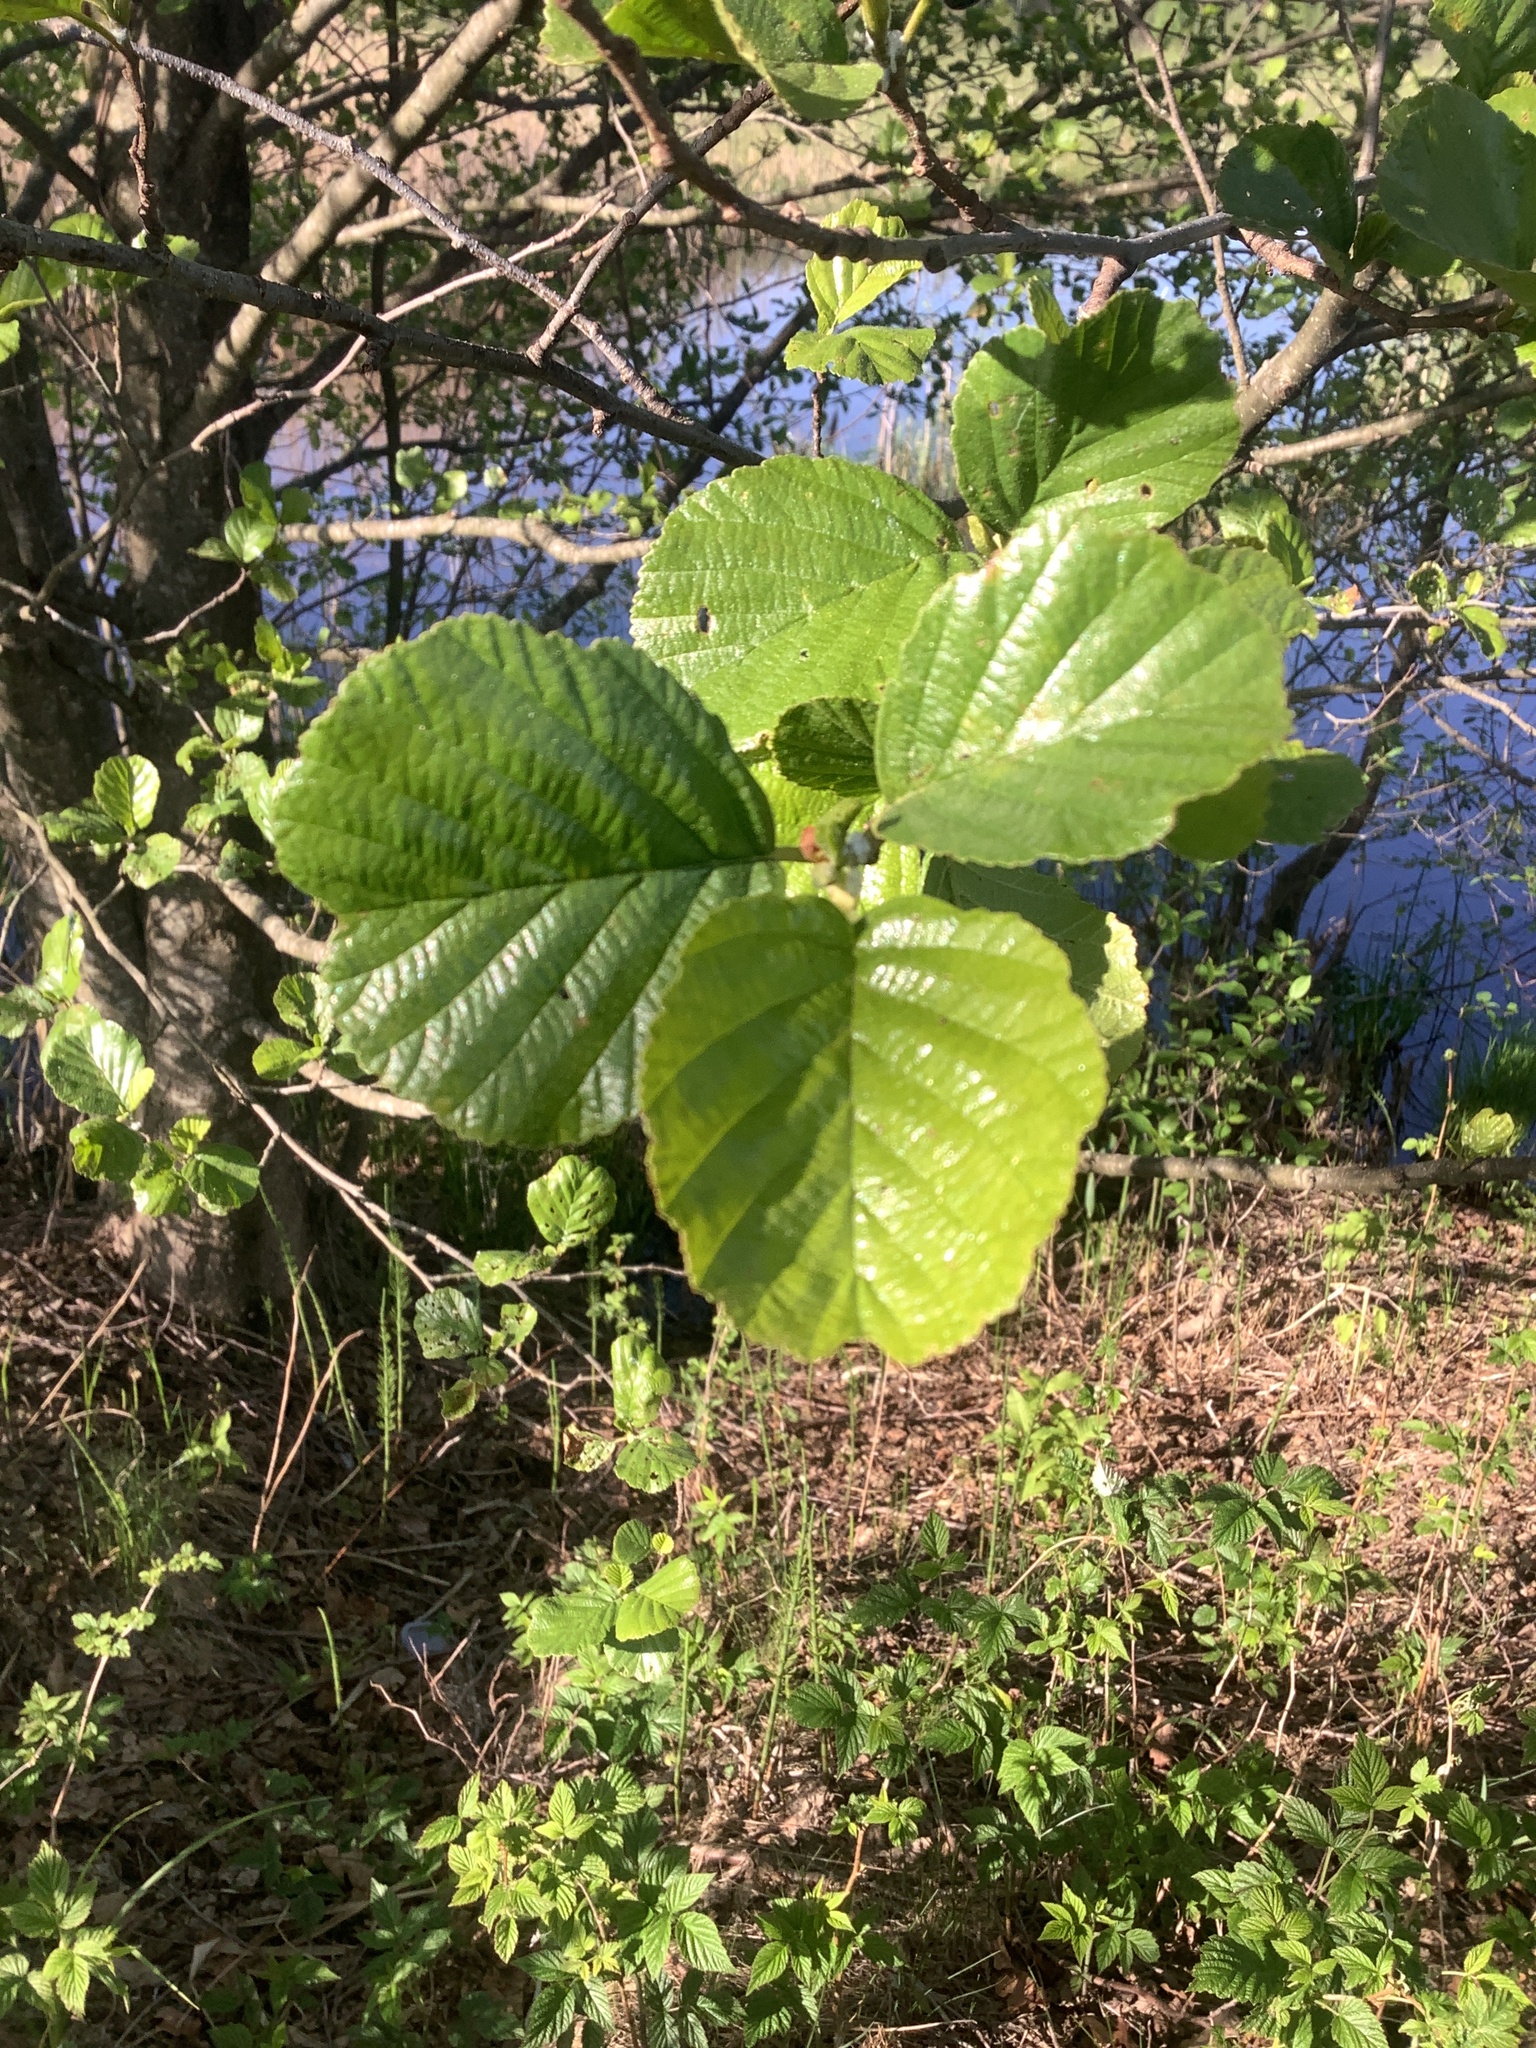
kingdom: Plantae
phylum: Tracheophyta
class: Magnoliopsida
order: Fagales
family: Betulaceae
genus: Alnus
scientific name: Alnus glutinosa
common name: Black alder
